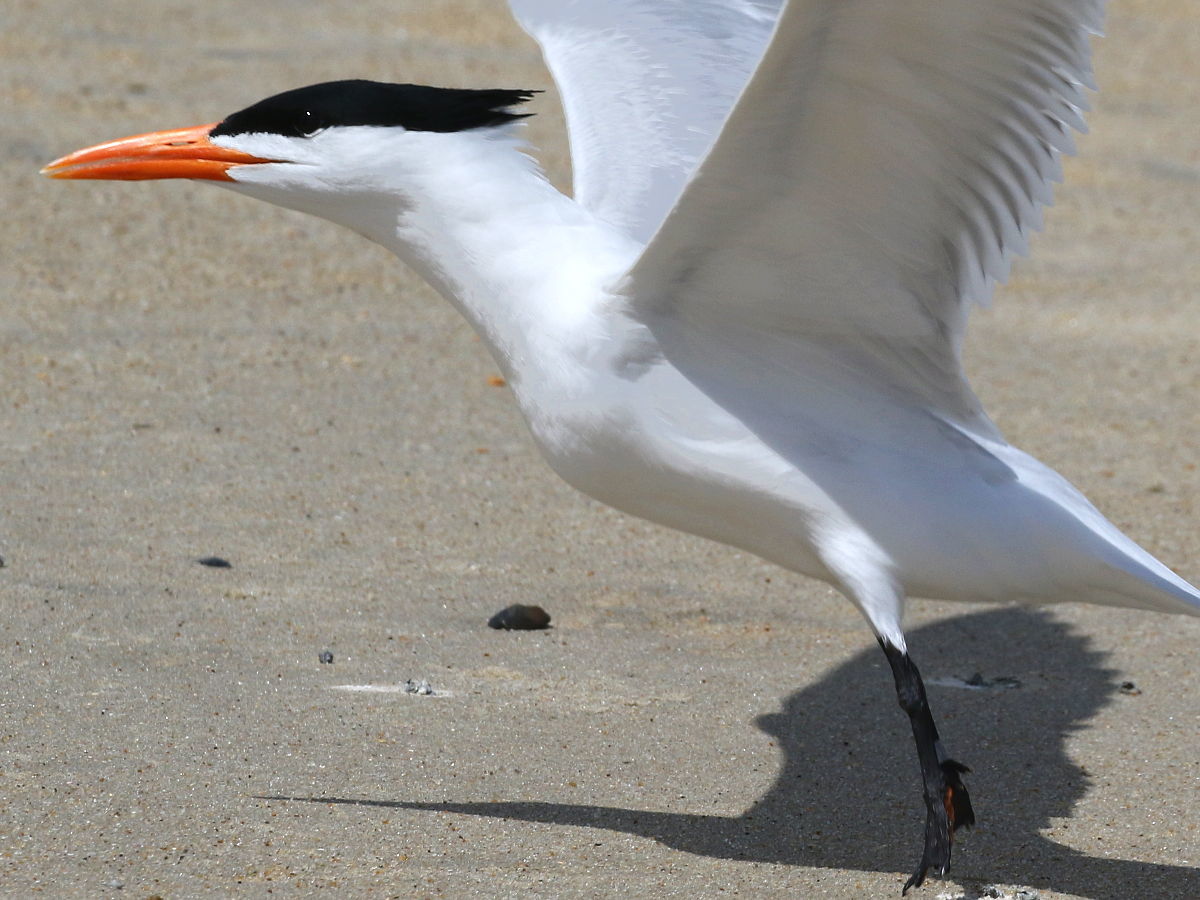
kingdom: Animalia
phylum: Chordata
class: Aves
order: Charadriiformes
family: Laridae
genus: Thalasseus
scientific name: Thalasseus maximus
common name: Royal tern
